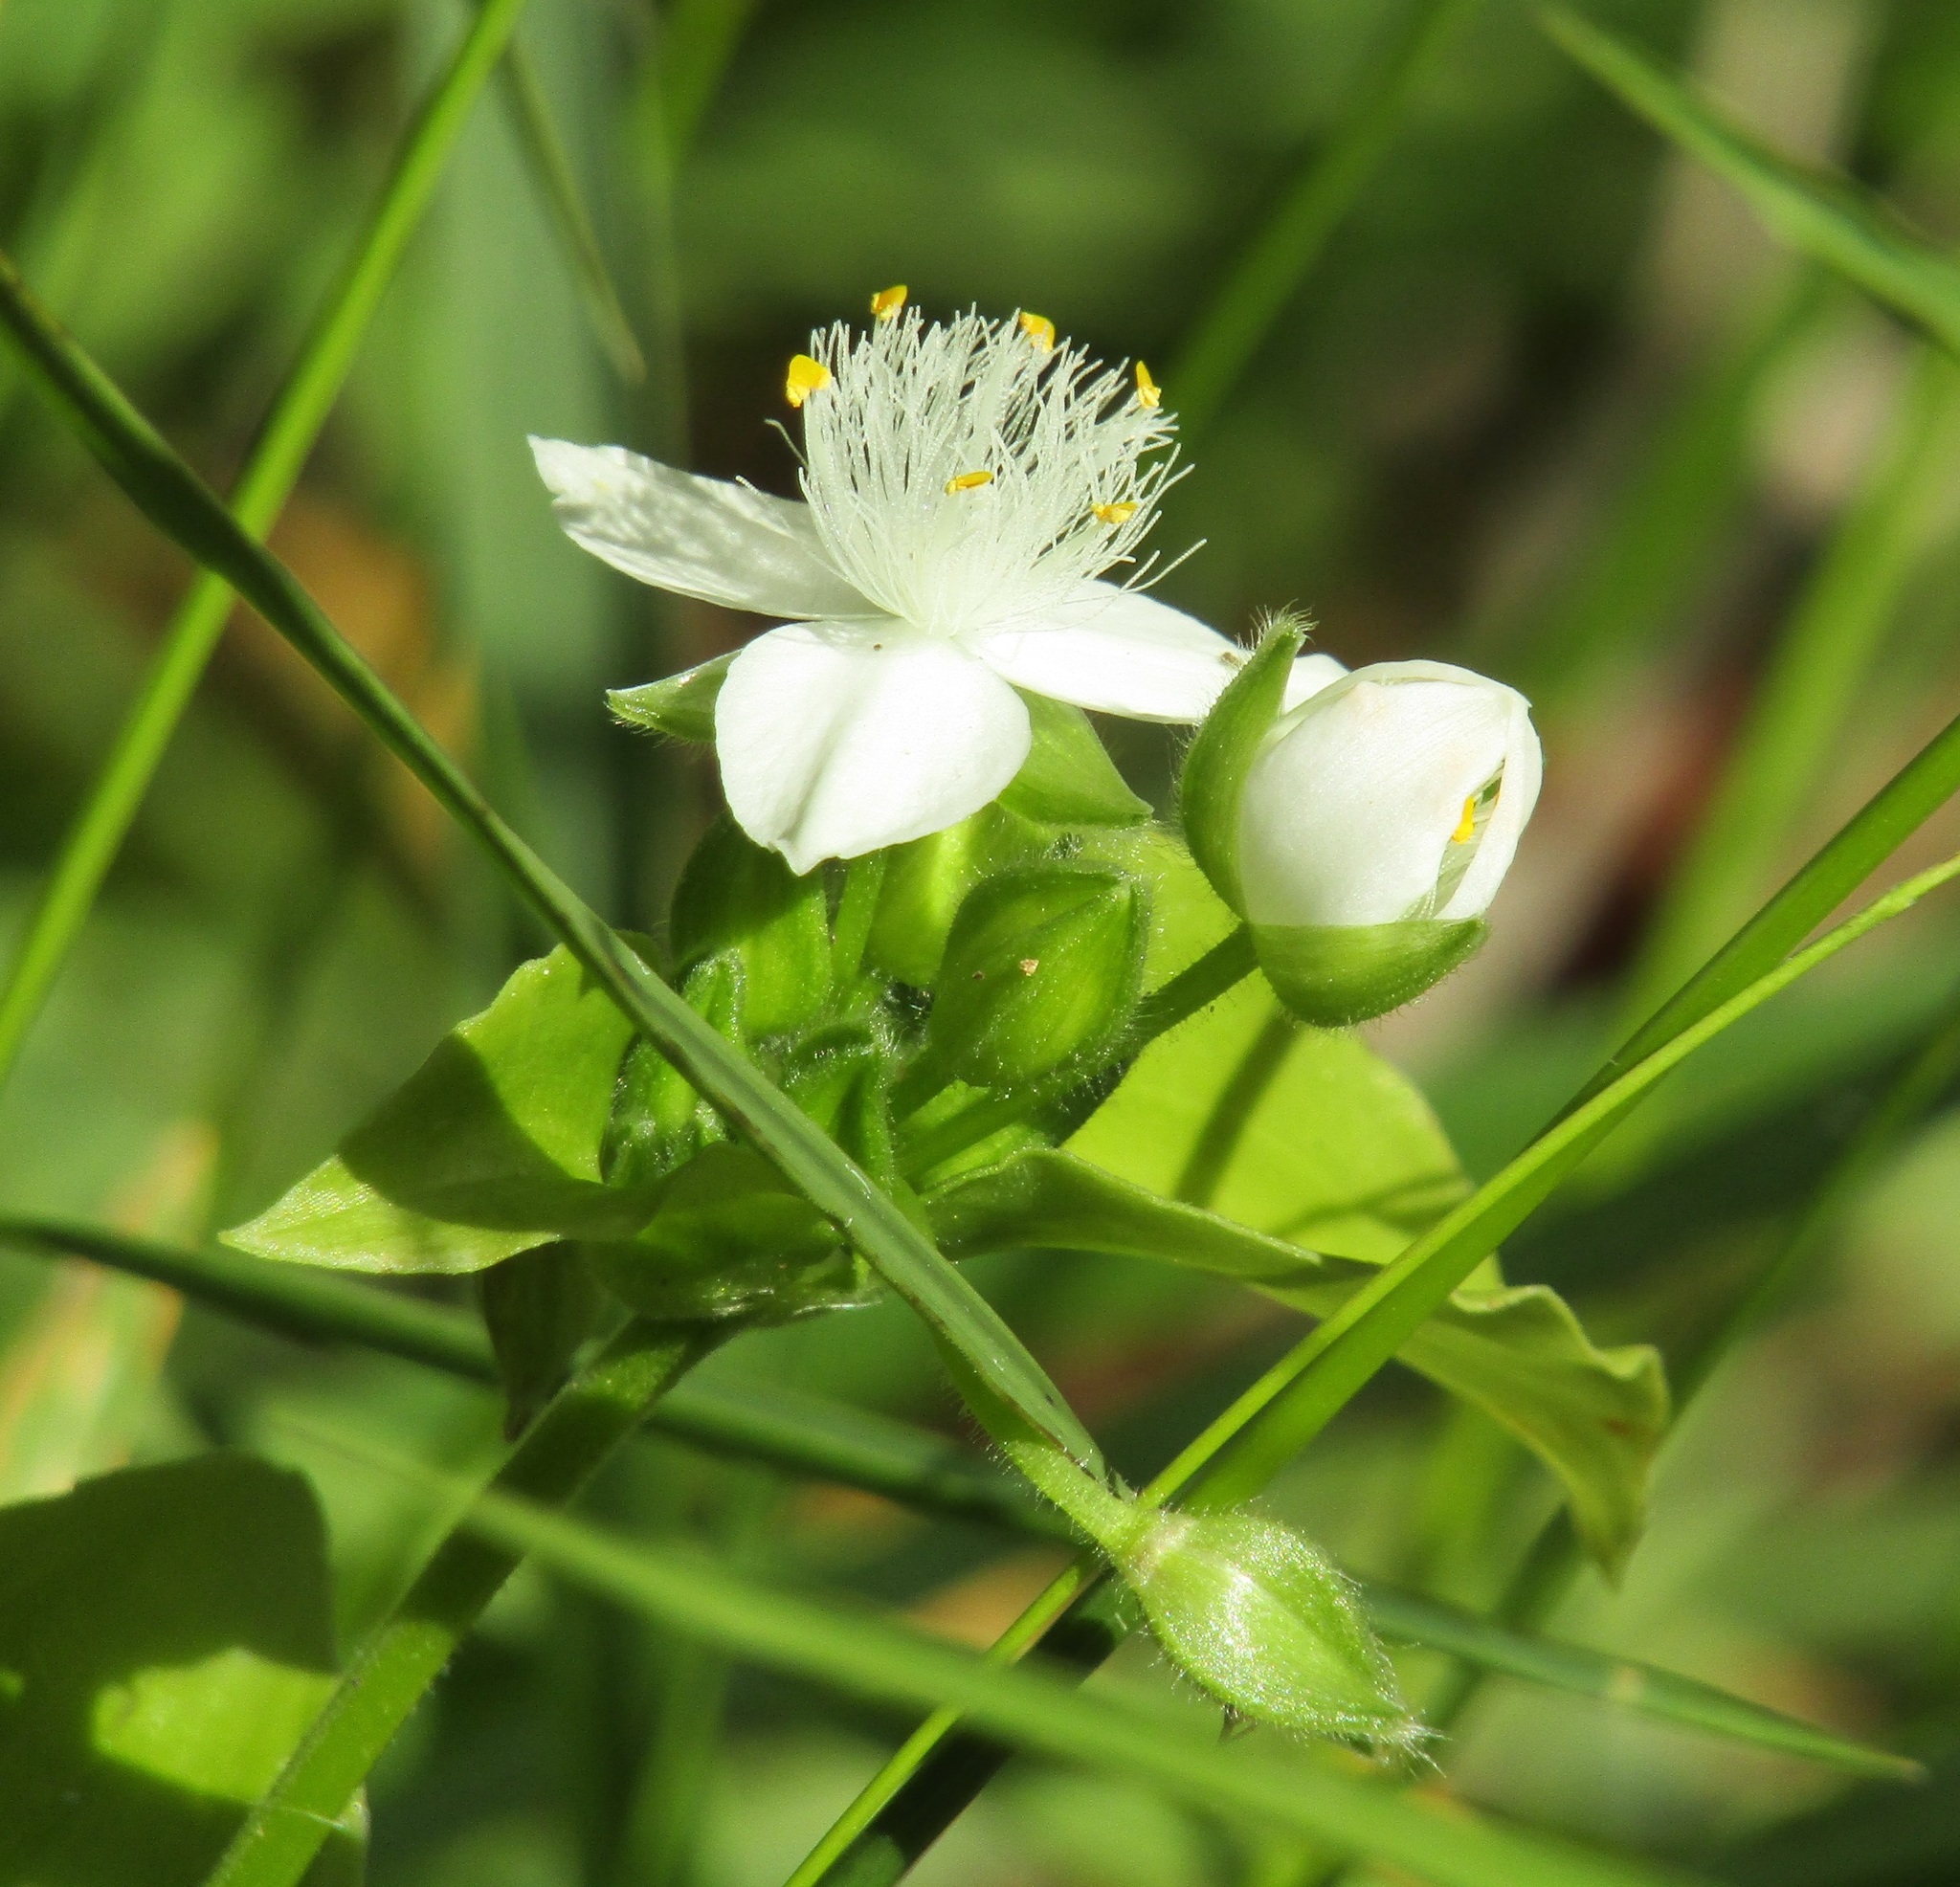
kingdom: Plantae
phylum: Tracheophyta
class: Liliopsida
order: Commelinales
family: Commelinaceae
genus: Tradescantia
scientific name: Tradescantia fluminensis
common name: Wandering-jew
